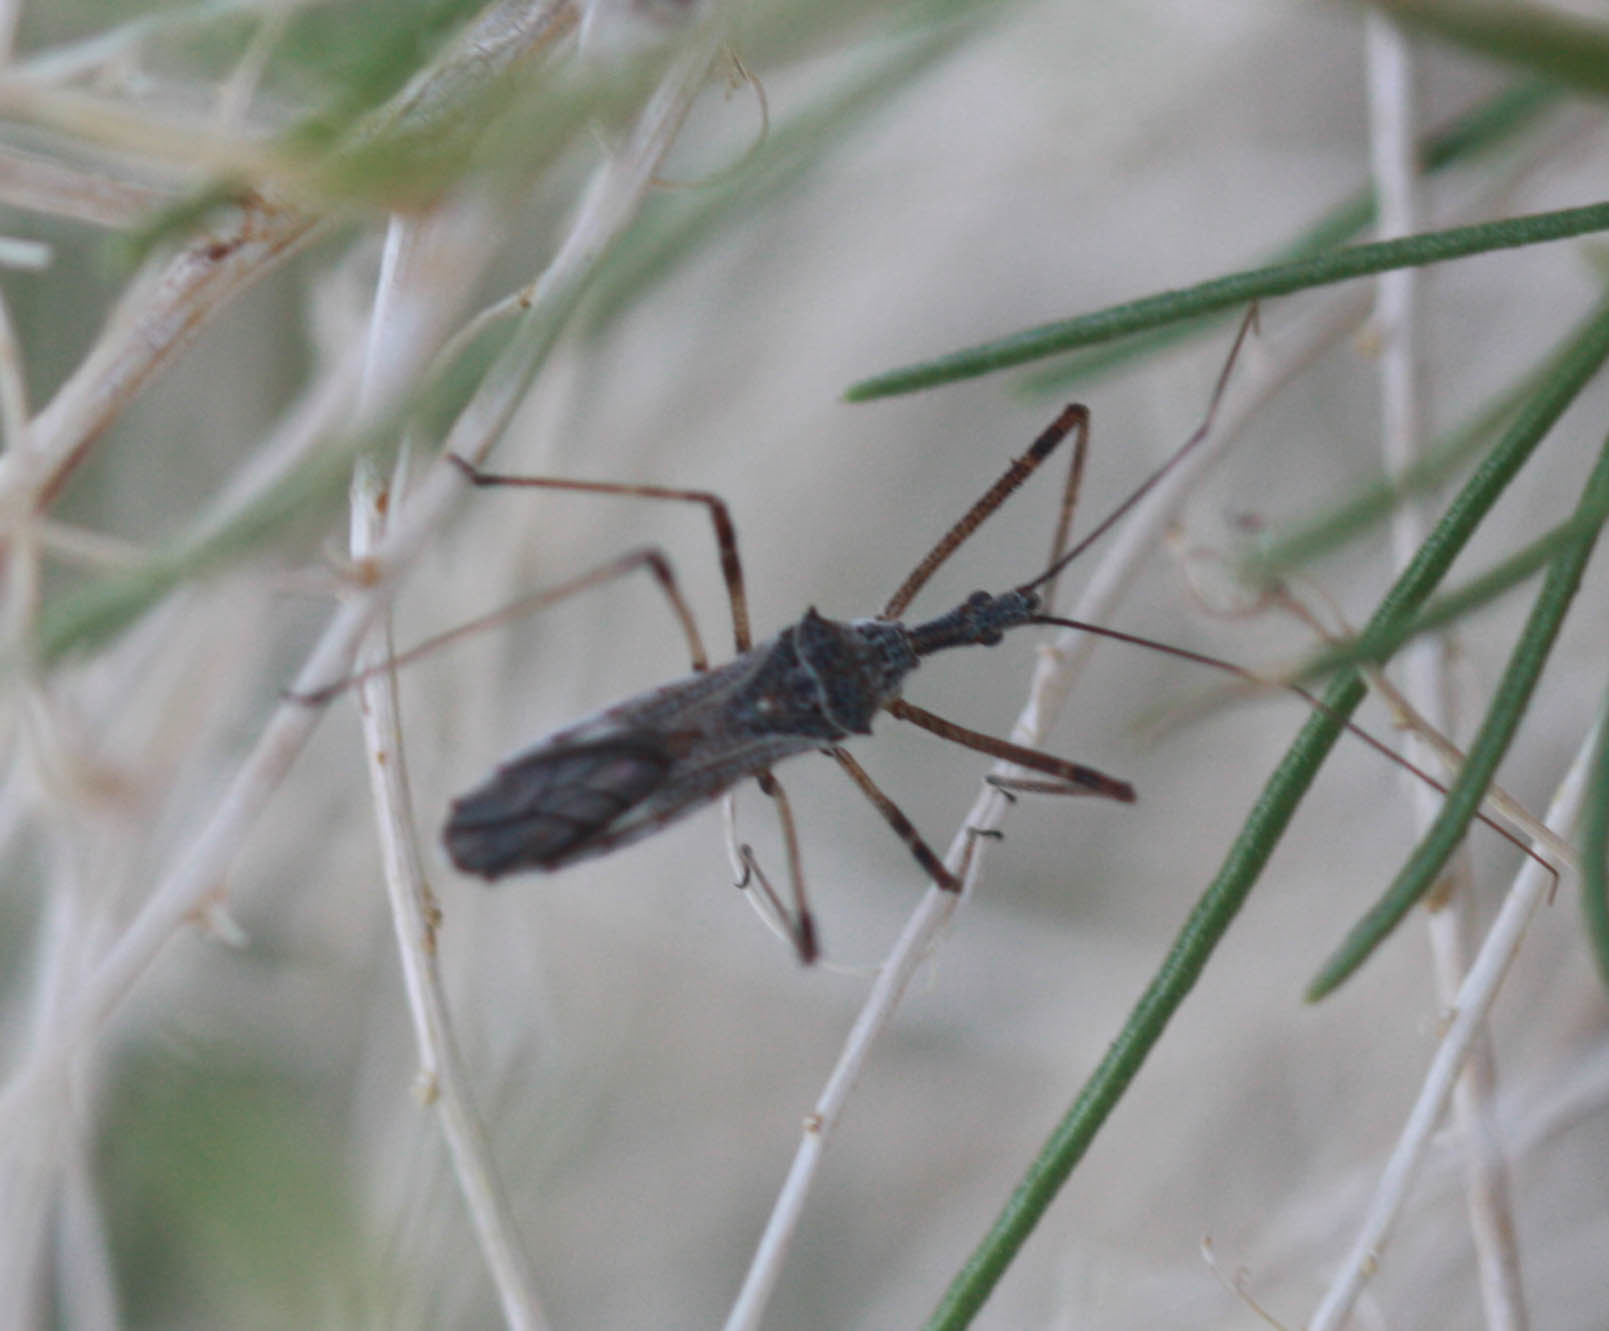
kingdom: Animalia
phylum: Arthropoda
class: Insecta
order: Hemiptera
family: Reduviidae
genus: Zelus
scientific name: Zelus tetracanthus
